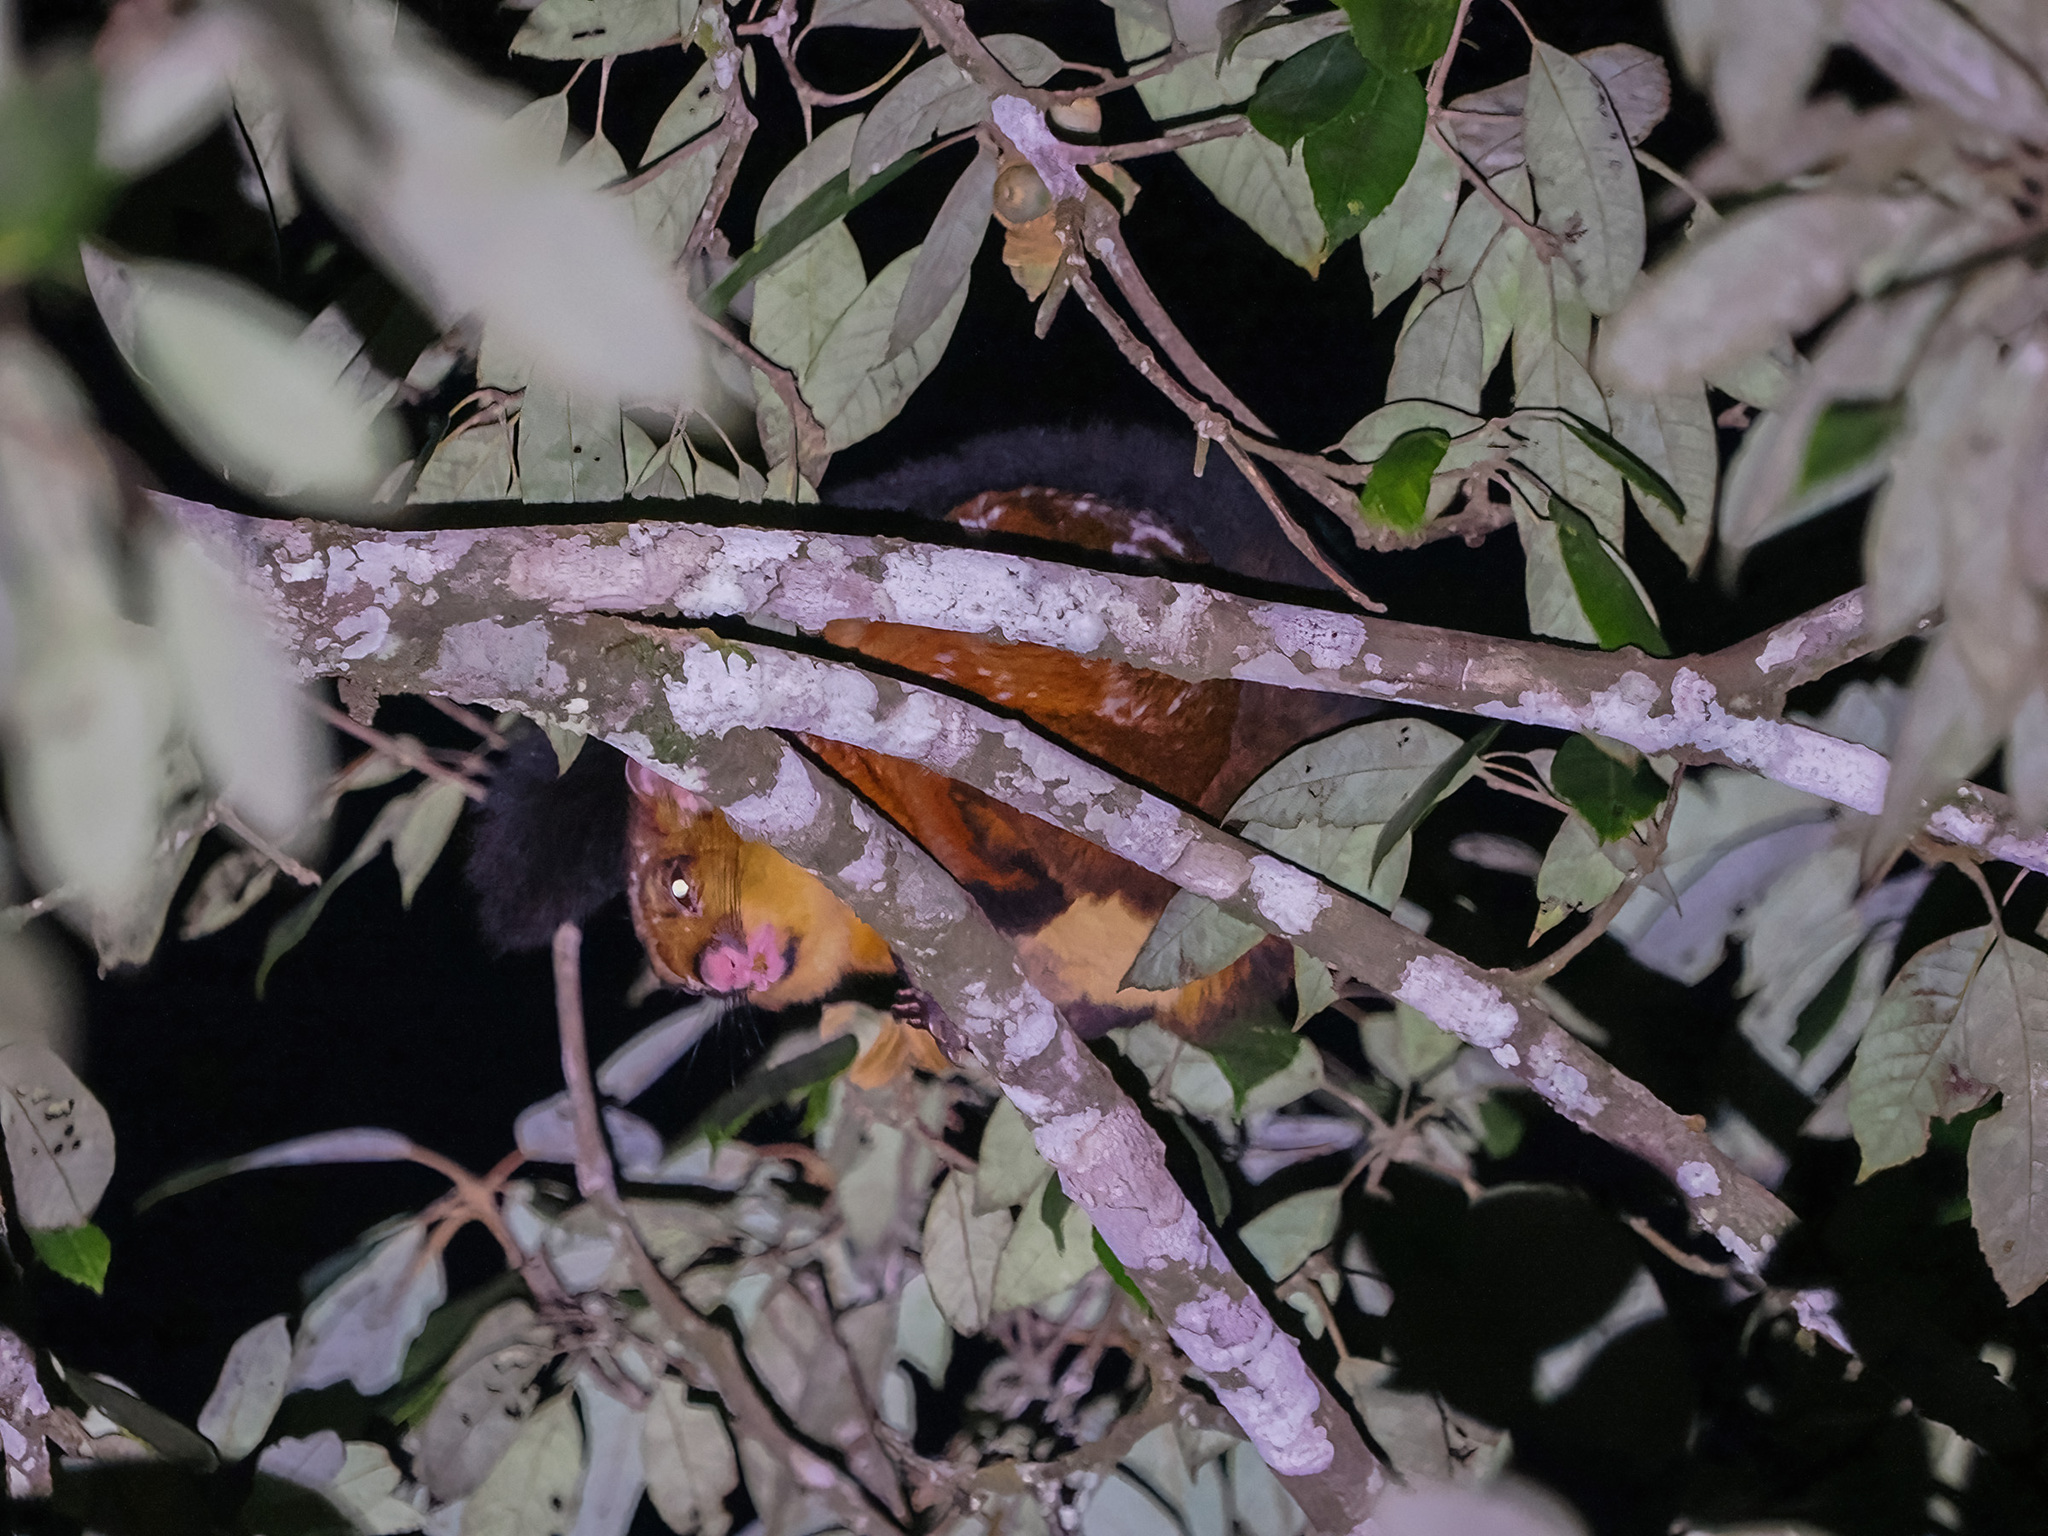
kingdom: Animalia
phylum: Chordata
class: Mammalia
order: Rodentia
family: Sciuridae
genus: Petaurista
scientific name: Petaurista
